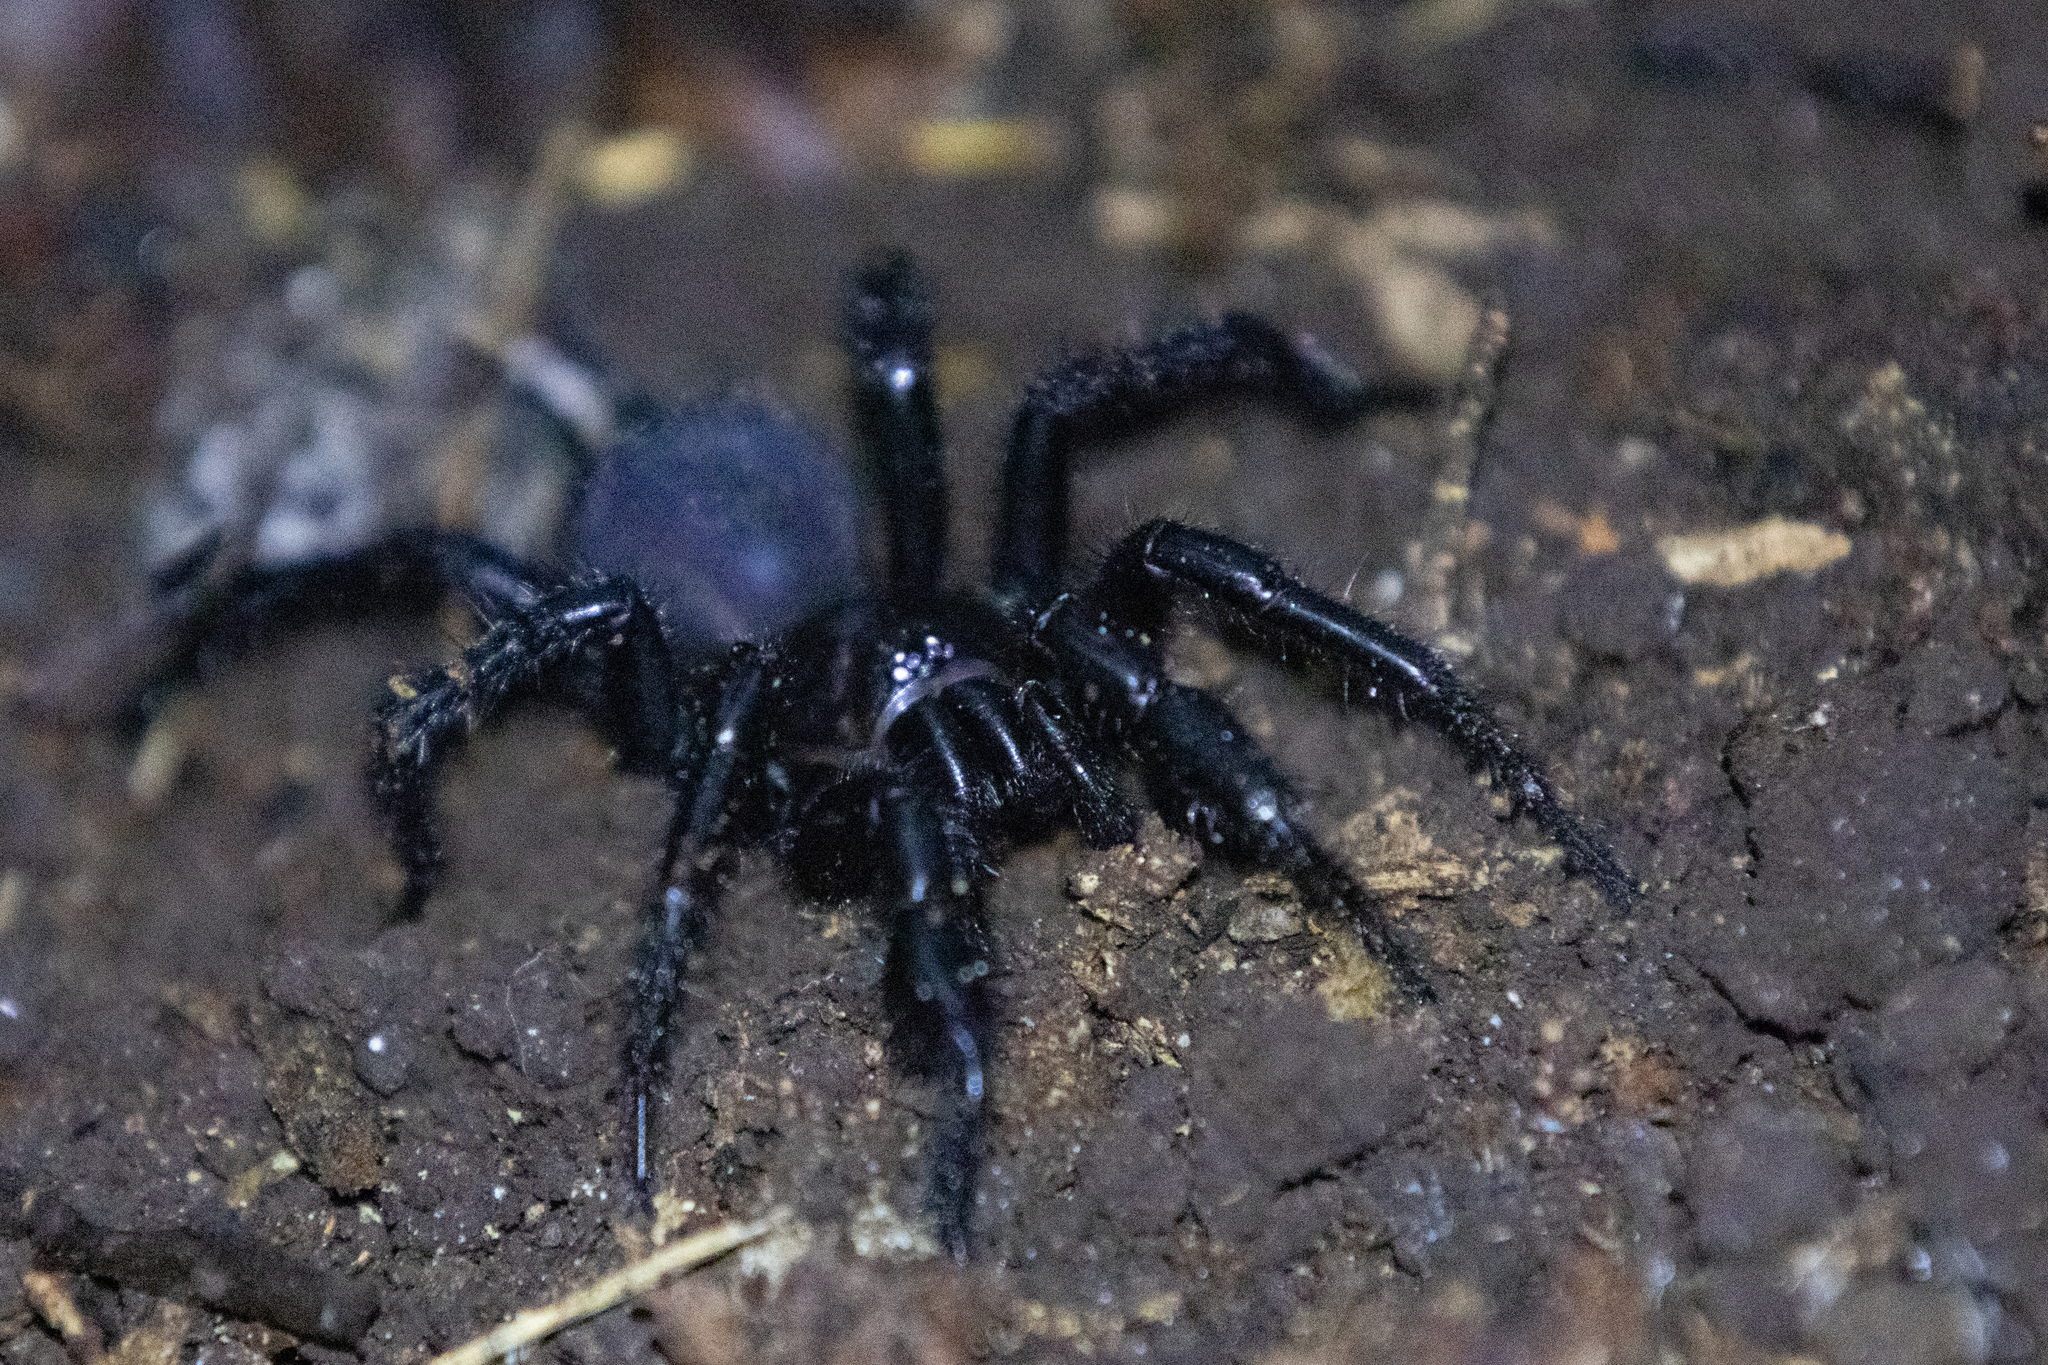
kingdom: Animalia
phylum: Arthropoda
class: Arachnida
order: Araneae
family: Porrhothelidae
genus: Porrhothele
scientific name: Porrhothele antipodiana
